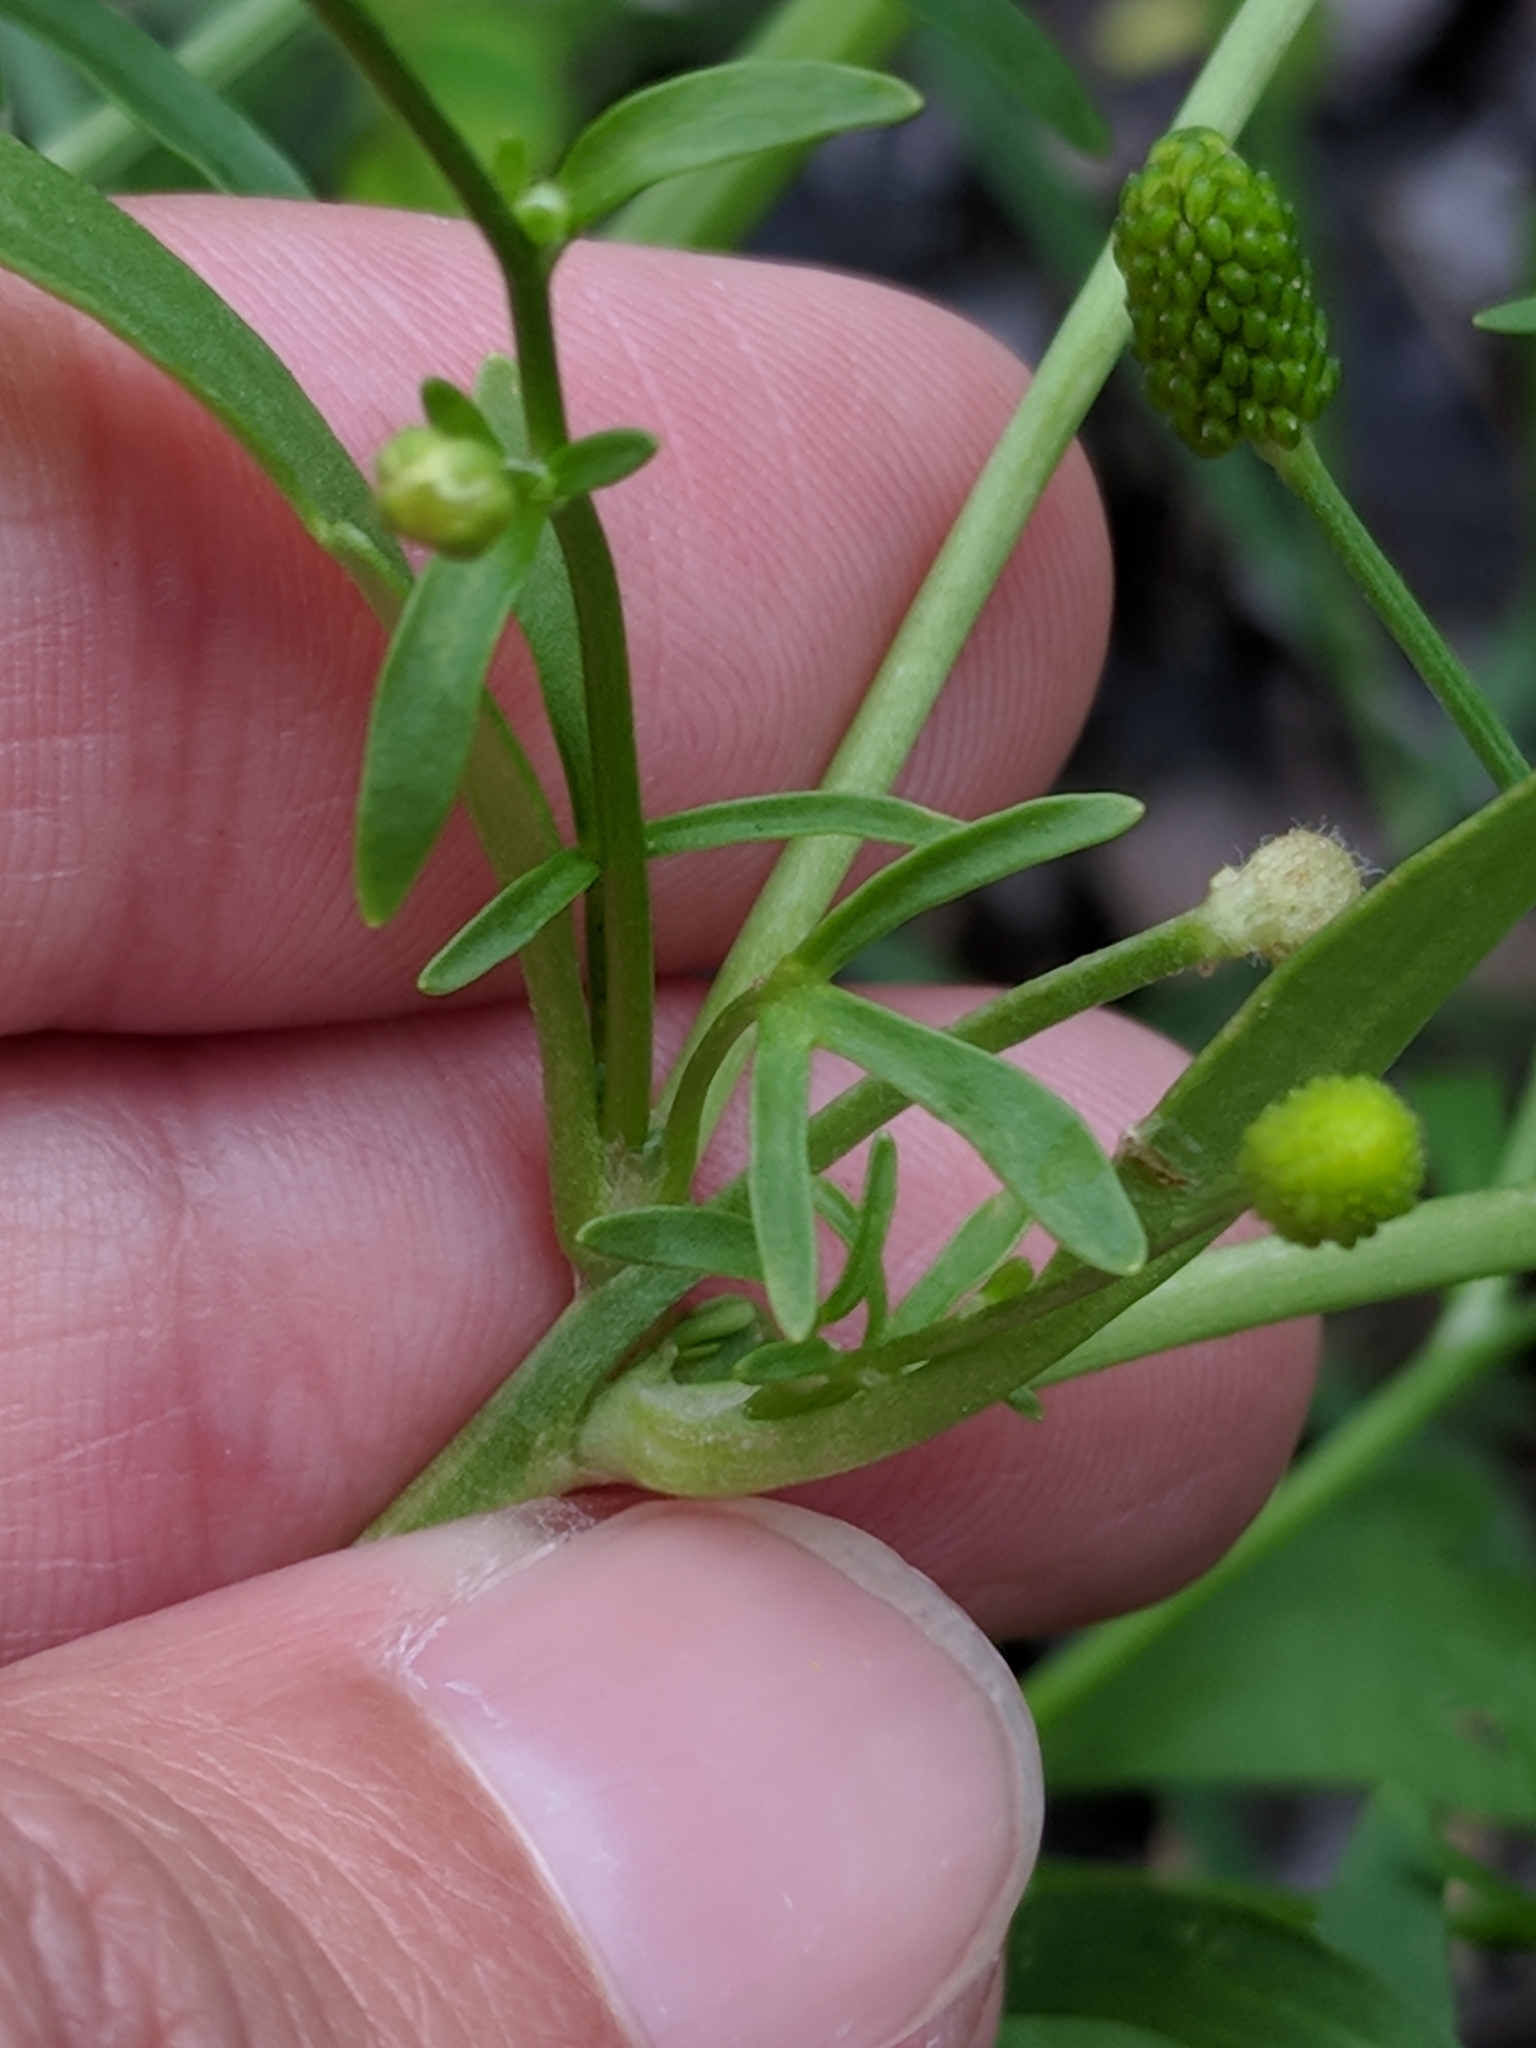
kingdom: Plantae
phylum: Tracheophyta
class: Magnoliopsida
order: Ranunculales
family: Ranunculaceae
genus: Ranunculus
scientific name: Ranunculus sceleratus
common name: Celery-leaved buttercup
